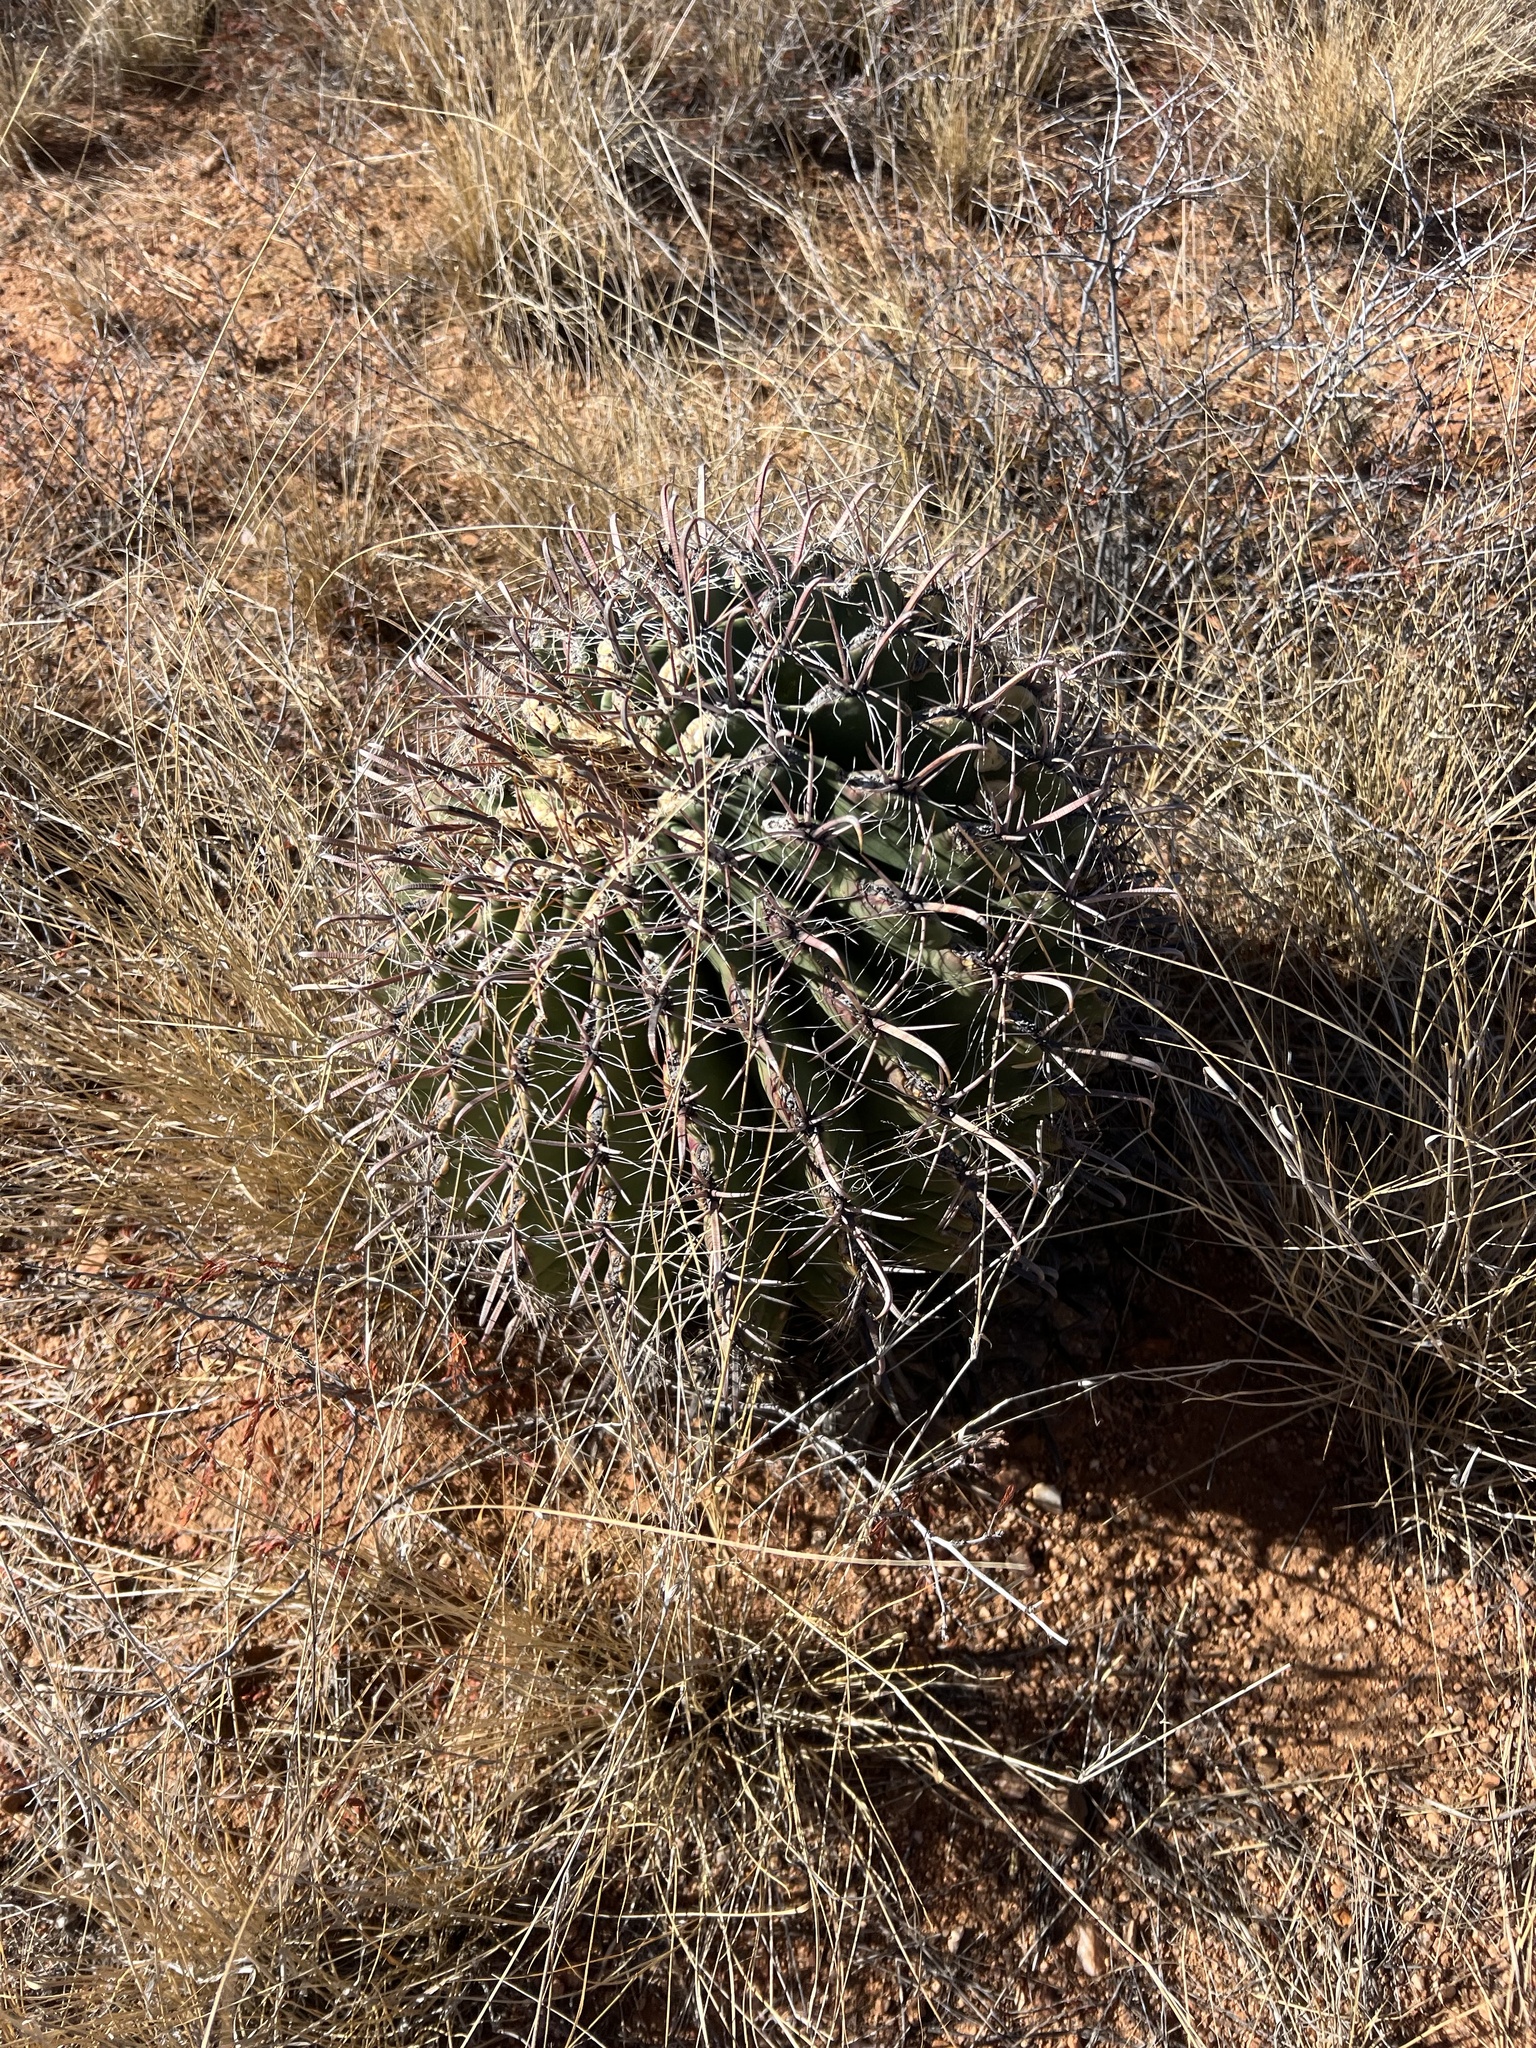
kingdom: Plantae
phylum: Tracheophyta
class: Magnoliopsida
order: Caryophyllales
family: Cactaceae
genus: Ferocactus
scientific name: Ferocactus wislizeni
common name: Candy barrel cactus
